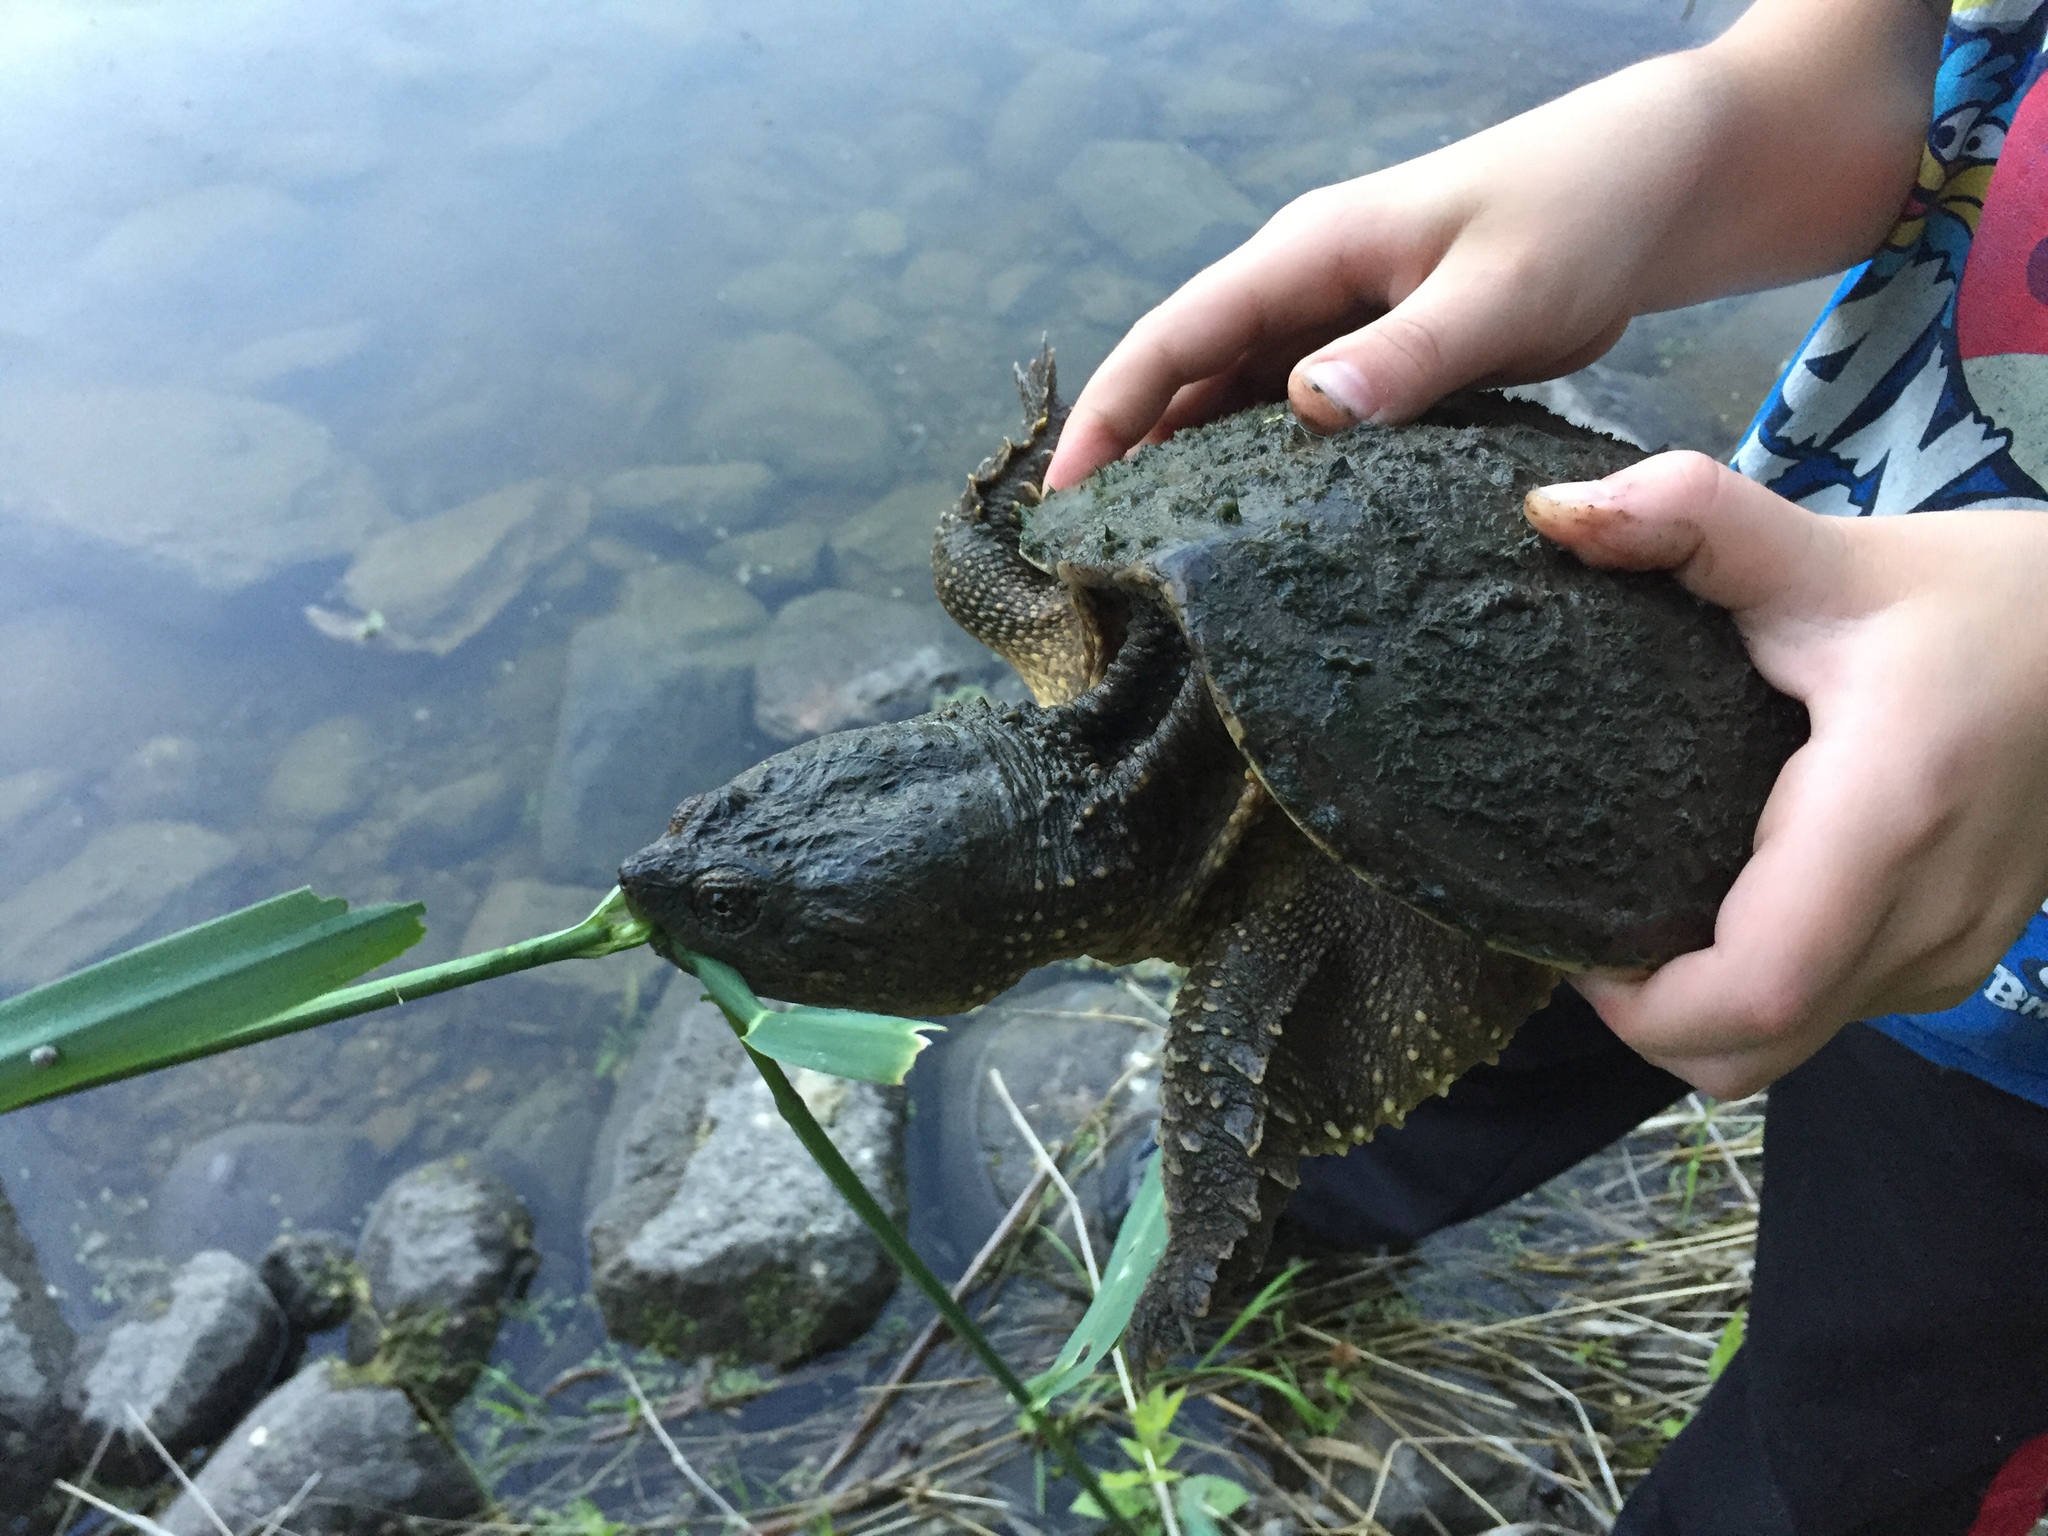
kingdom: Animalia
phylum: Chordata
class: Testudines
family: Chelydridae
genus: Chelydra
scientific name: Chelydra serpentina
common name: Common snapping turtle
